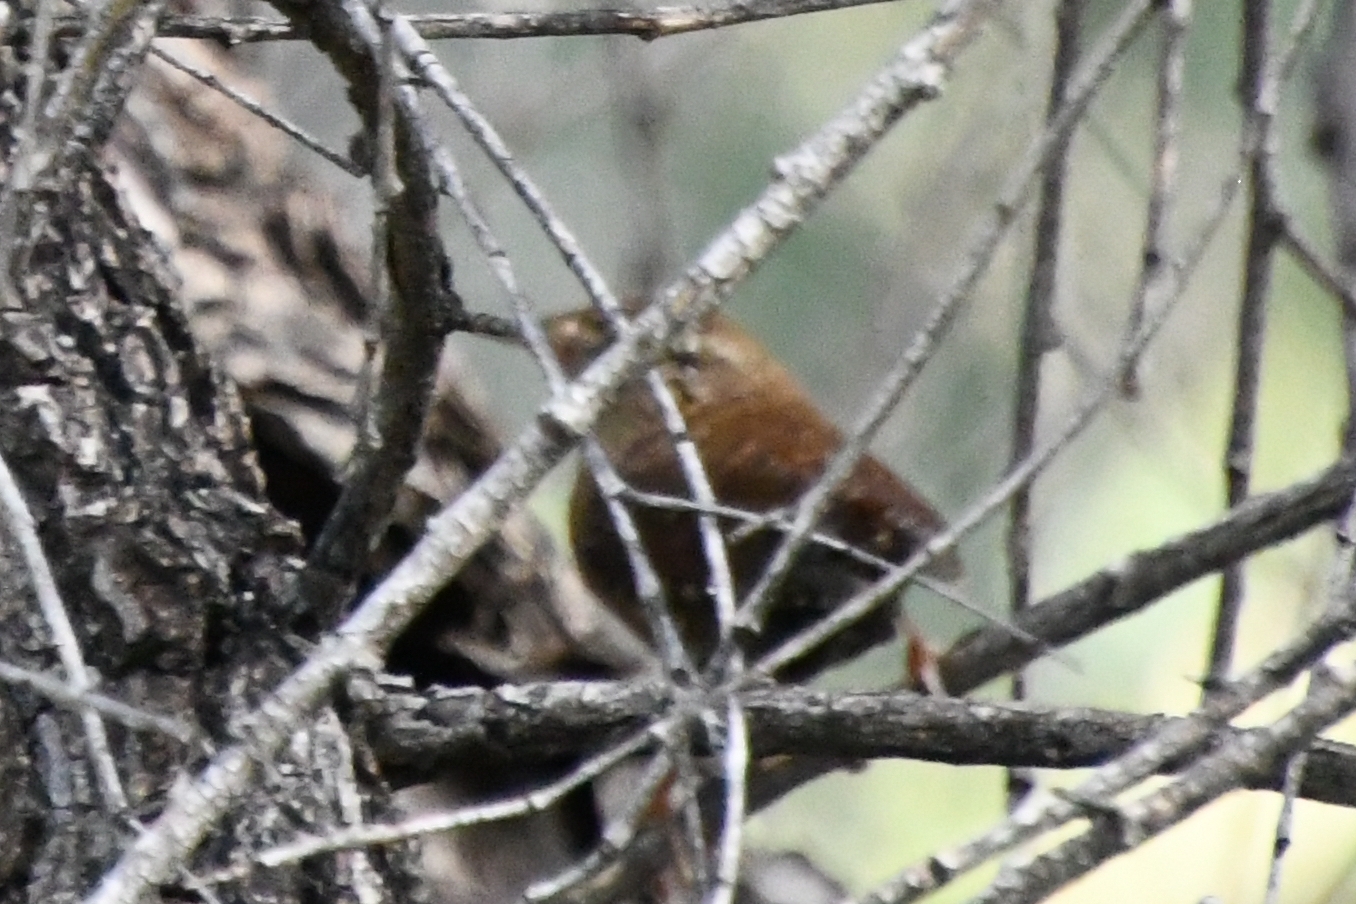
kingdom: Animalia
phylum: Chordata
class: Aves
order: Passeriformes
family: Troglodytidae
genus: Troglodytes
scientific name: Troglodytes hiemalis
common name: Winter wren
